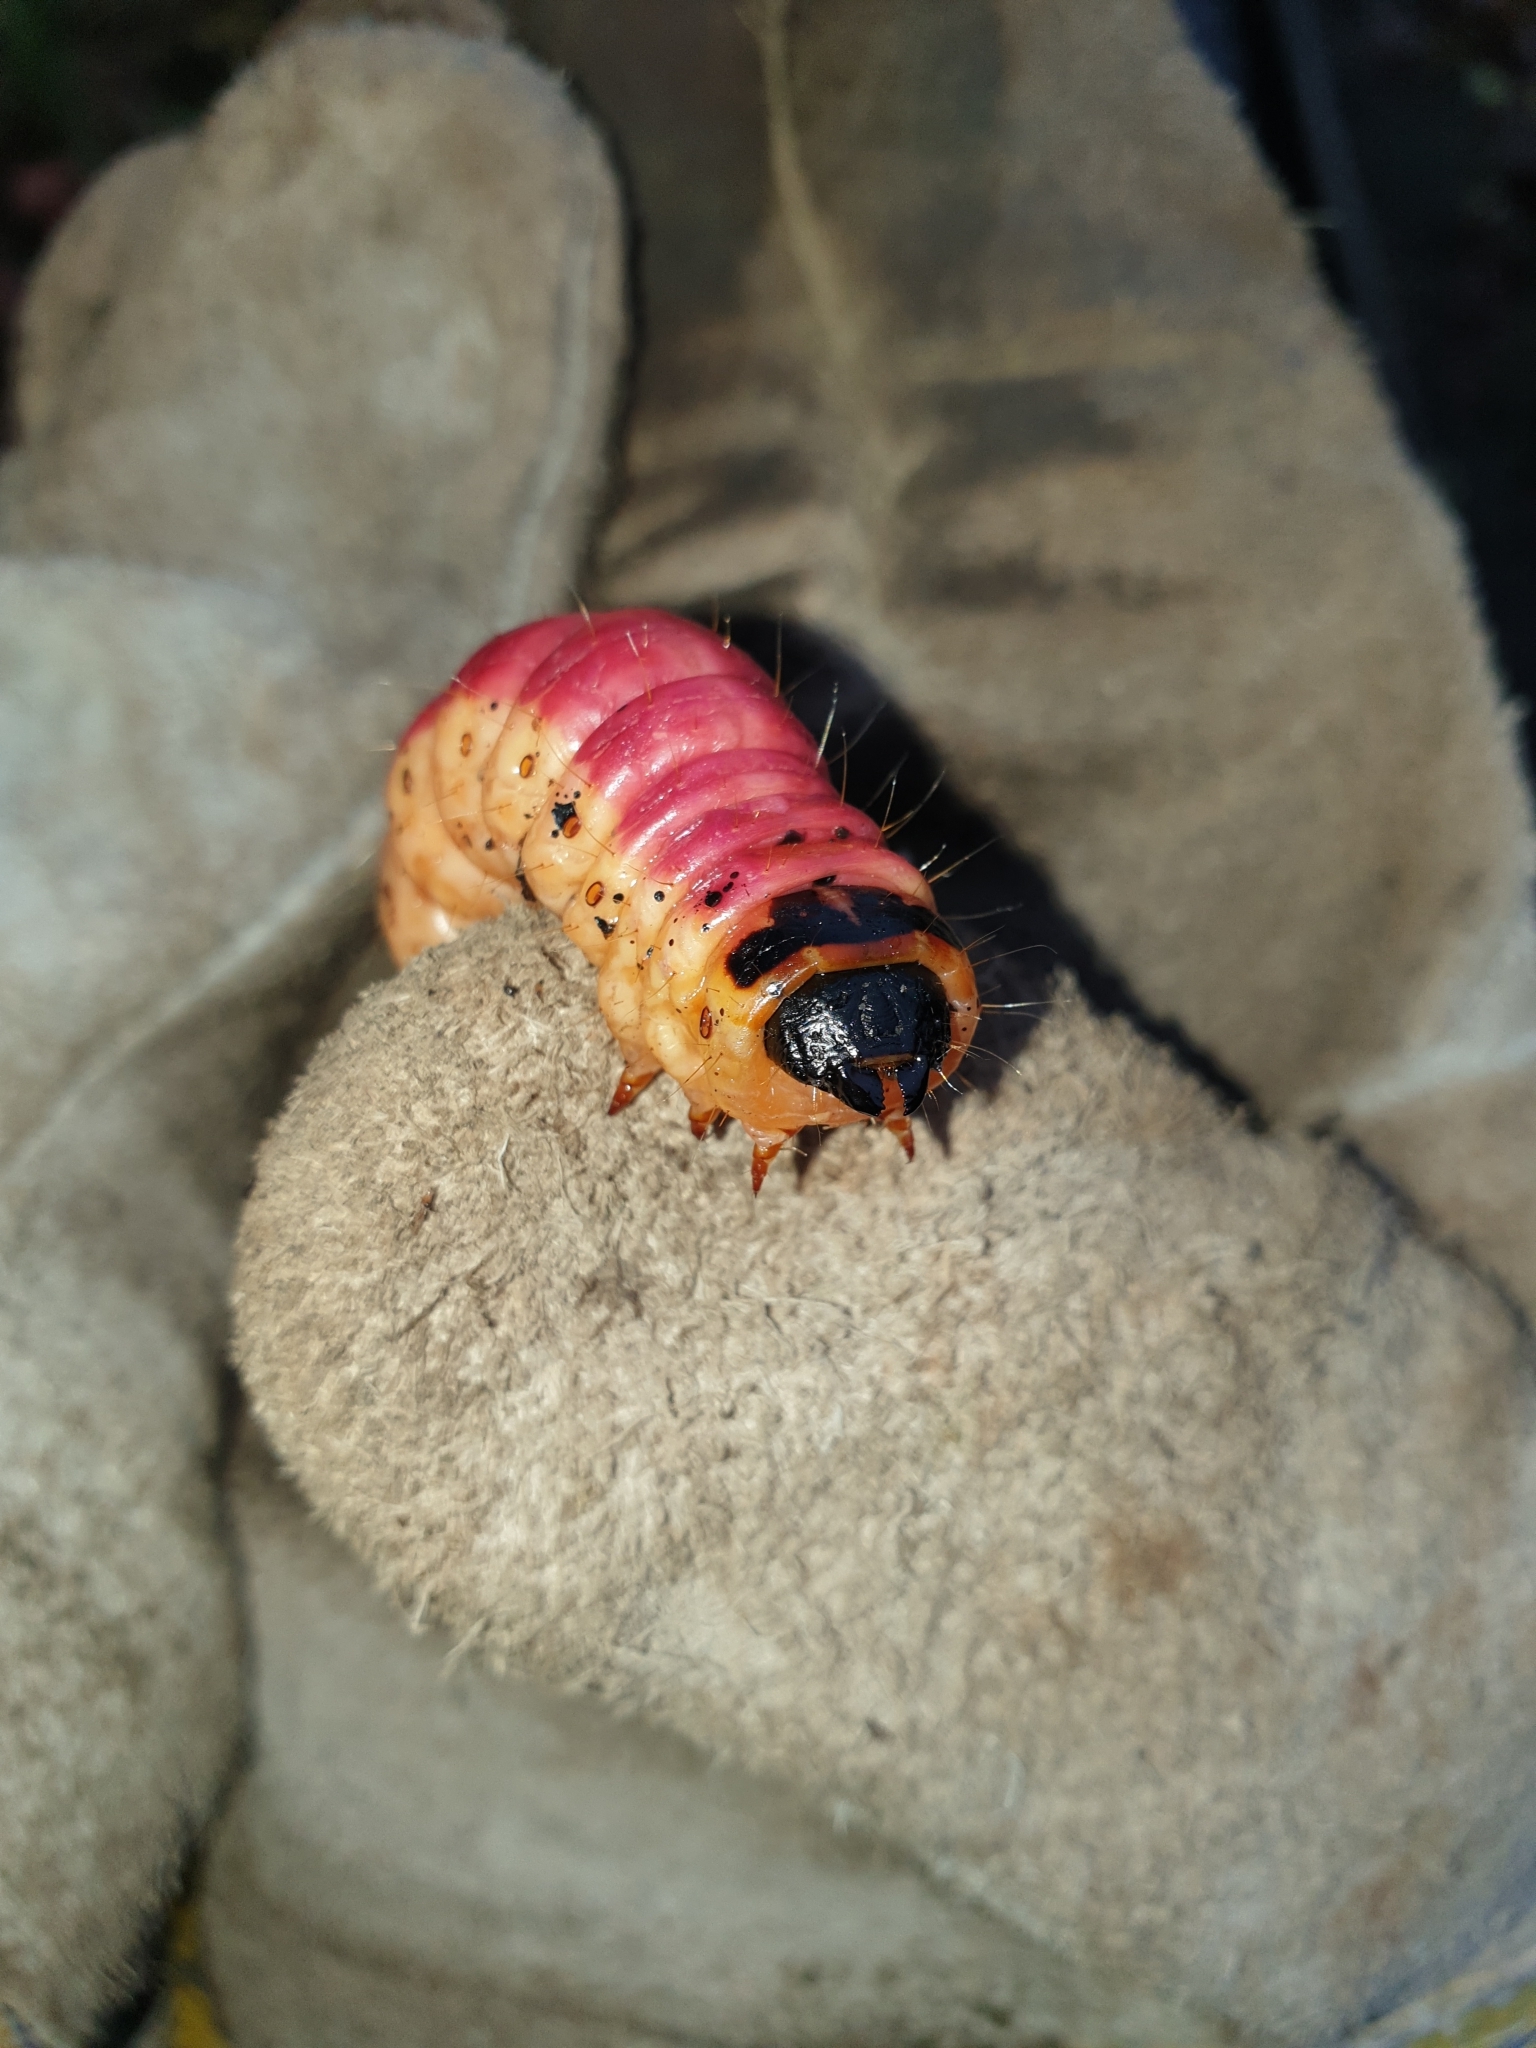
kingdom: Animalia
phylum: Arthropoda
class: Insecta
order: Lepidoptera
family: Cossidae
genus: Cossus
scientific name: Cossus cossus
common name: Goat moth
